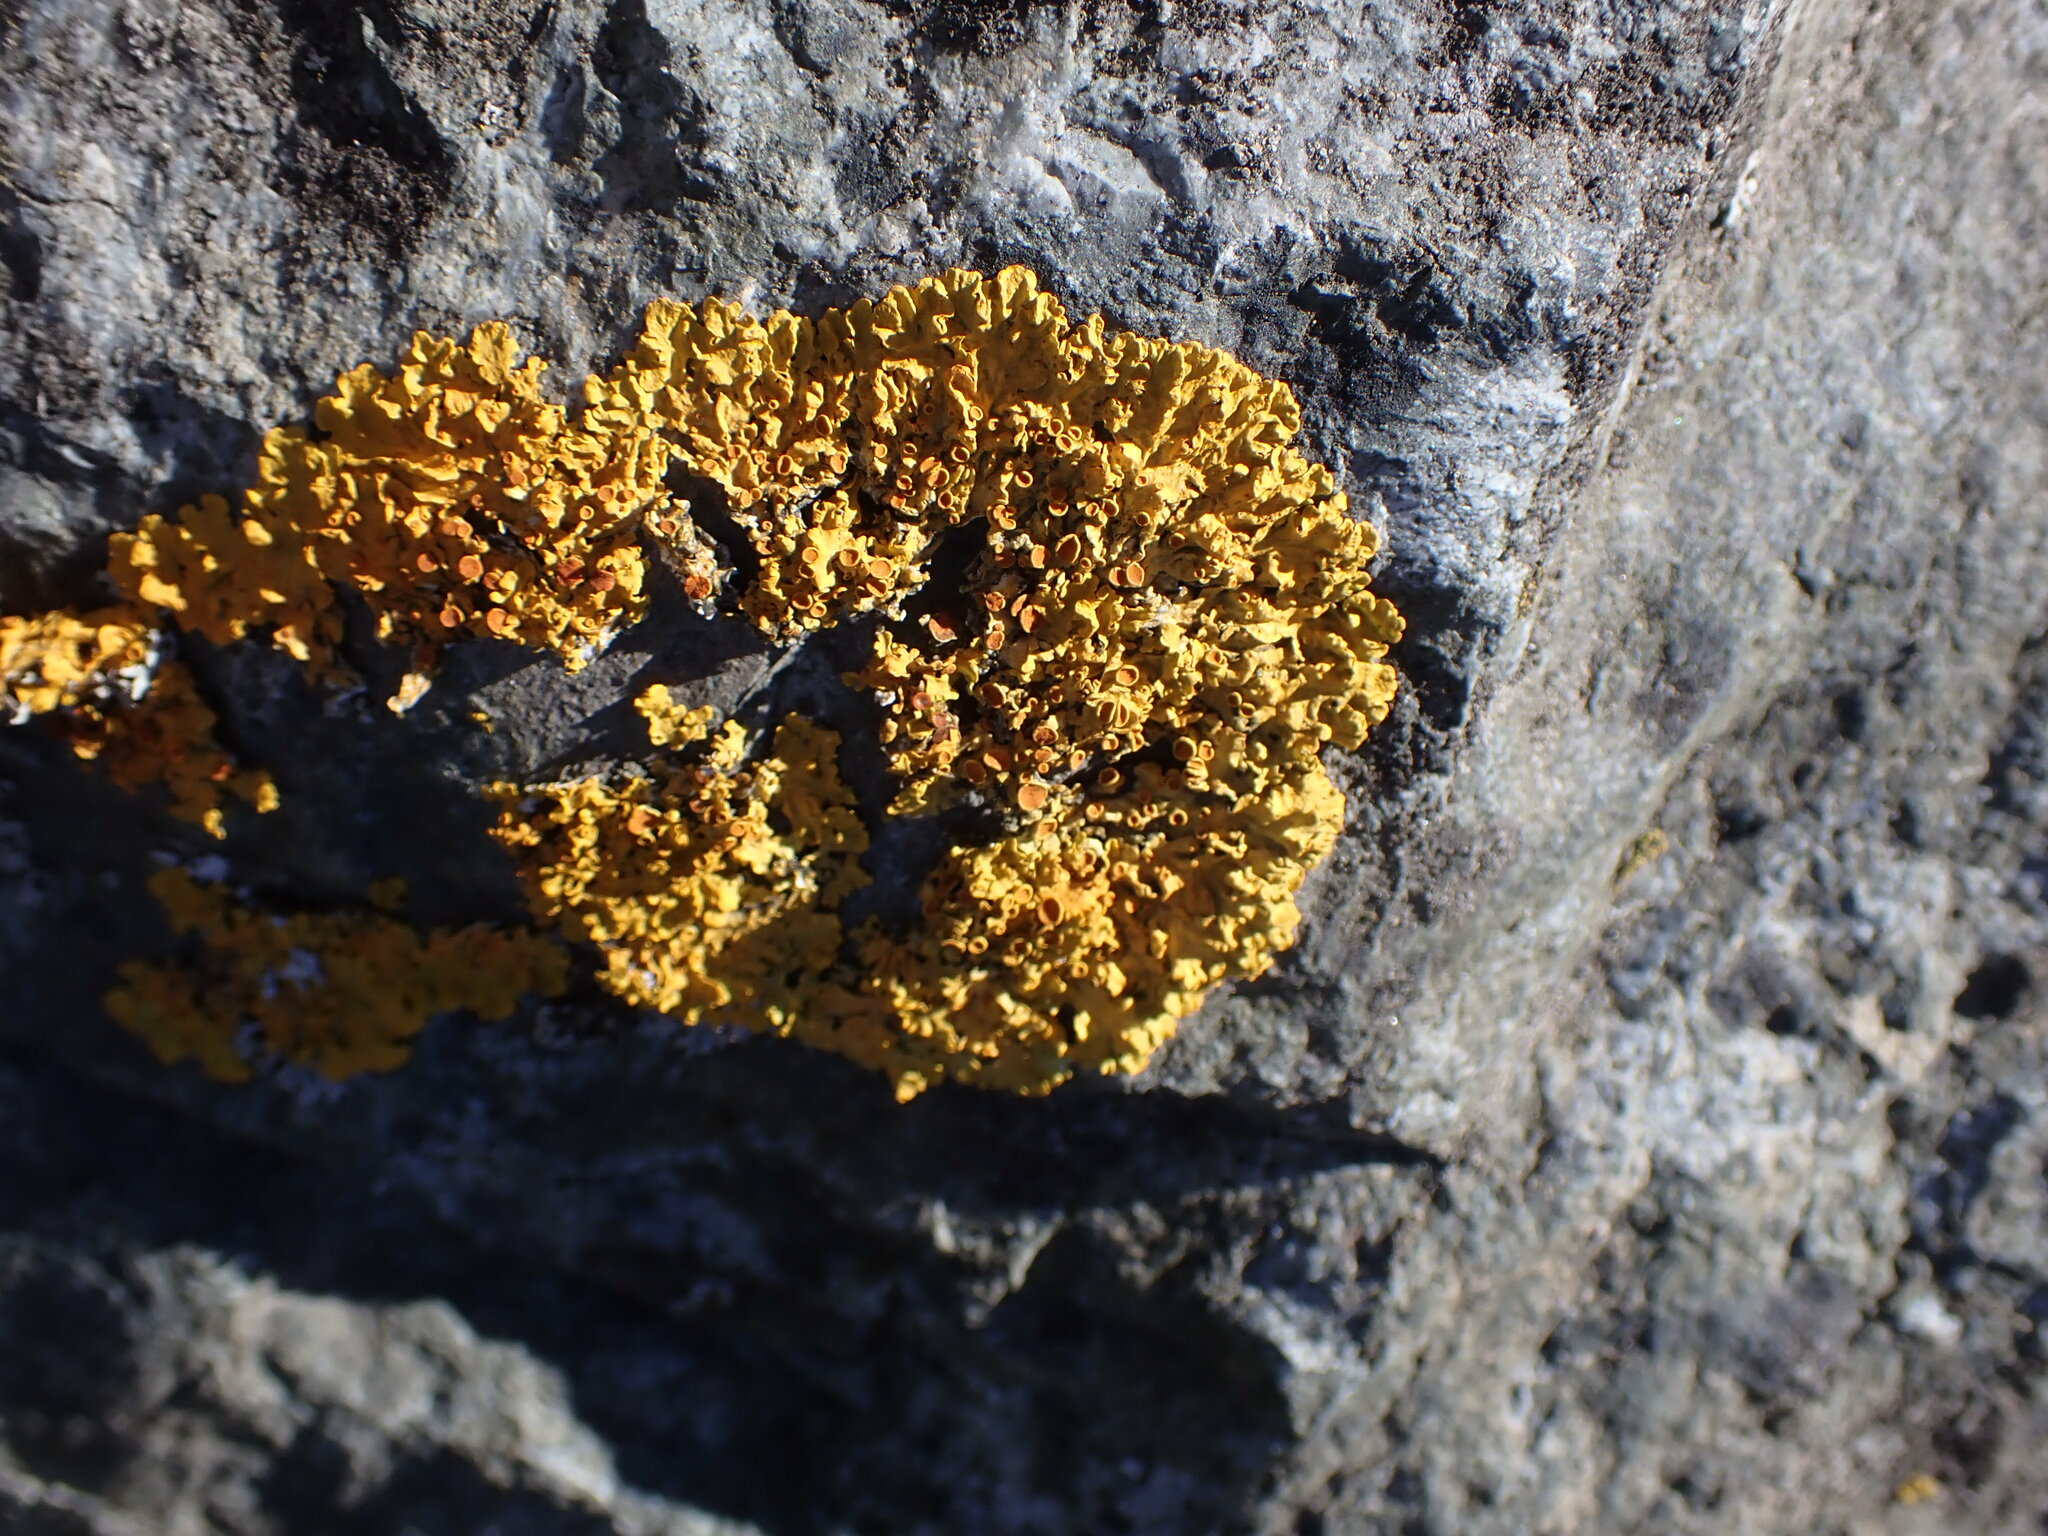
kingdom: Fungi
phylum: Ascomycota
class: Lecanoromycetes
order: Teloschistales
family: Teloschistaceae
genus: Xanthoria
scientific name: Xanthoria parietina
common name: Common orange lichen
